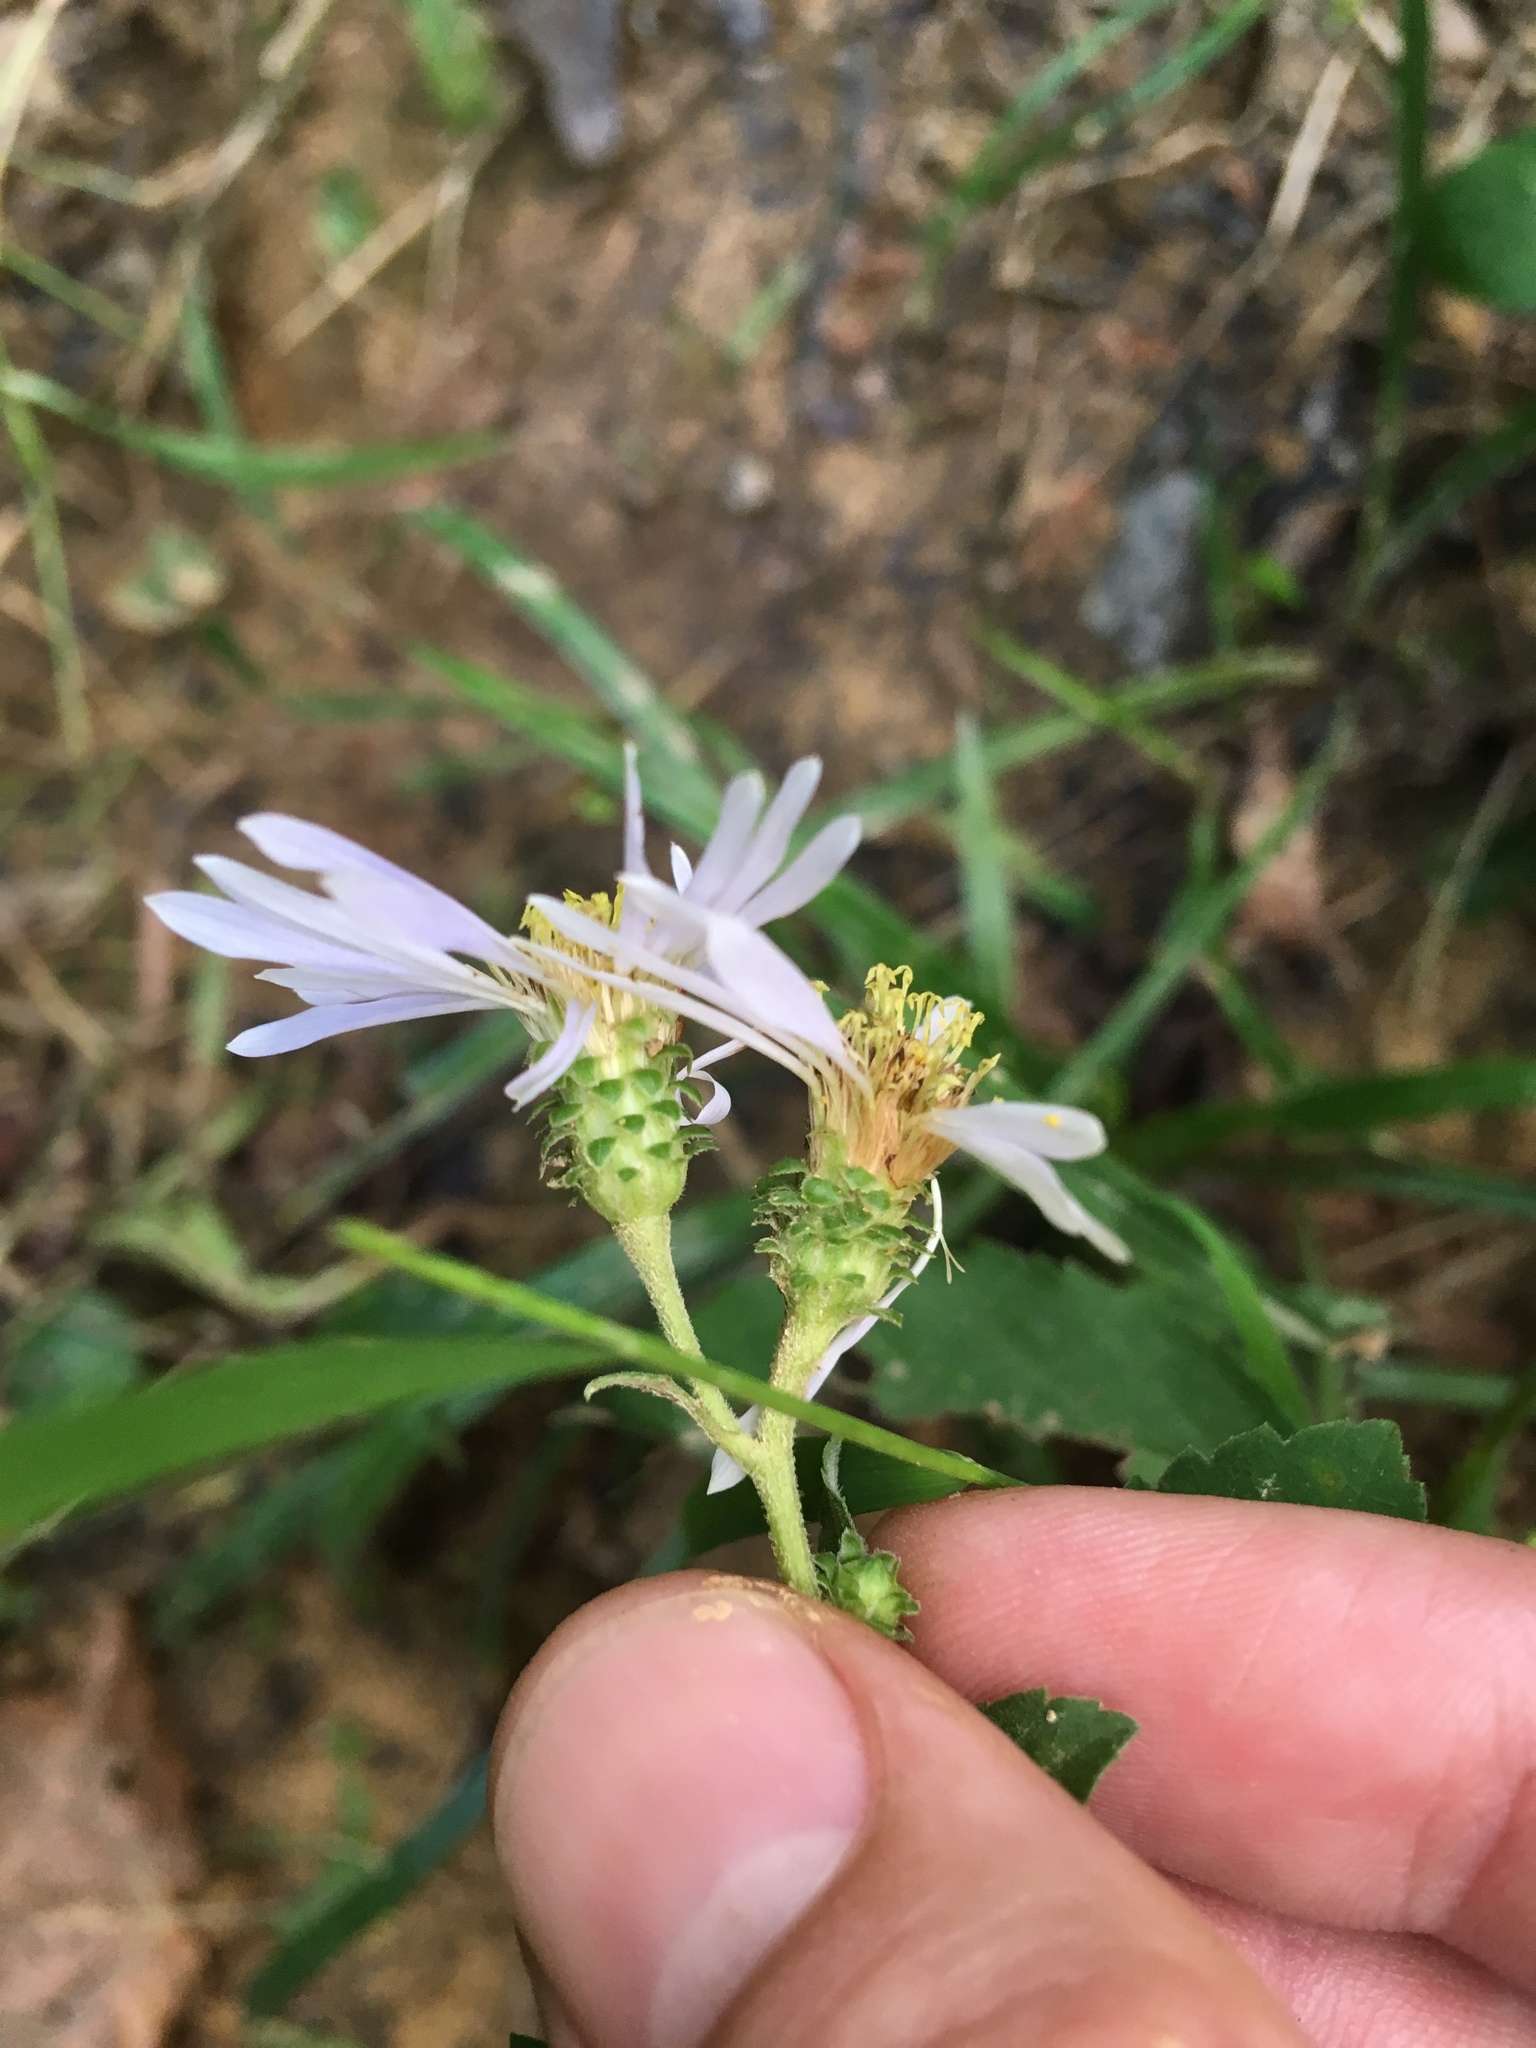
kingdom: Plantae
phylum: Tracheophyta
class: Magnoliopsida
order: Asterales
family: Asteraceae
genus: Eurybia
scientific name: Eurybia mirabilis
